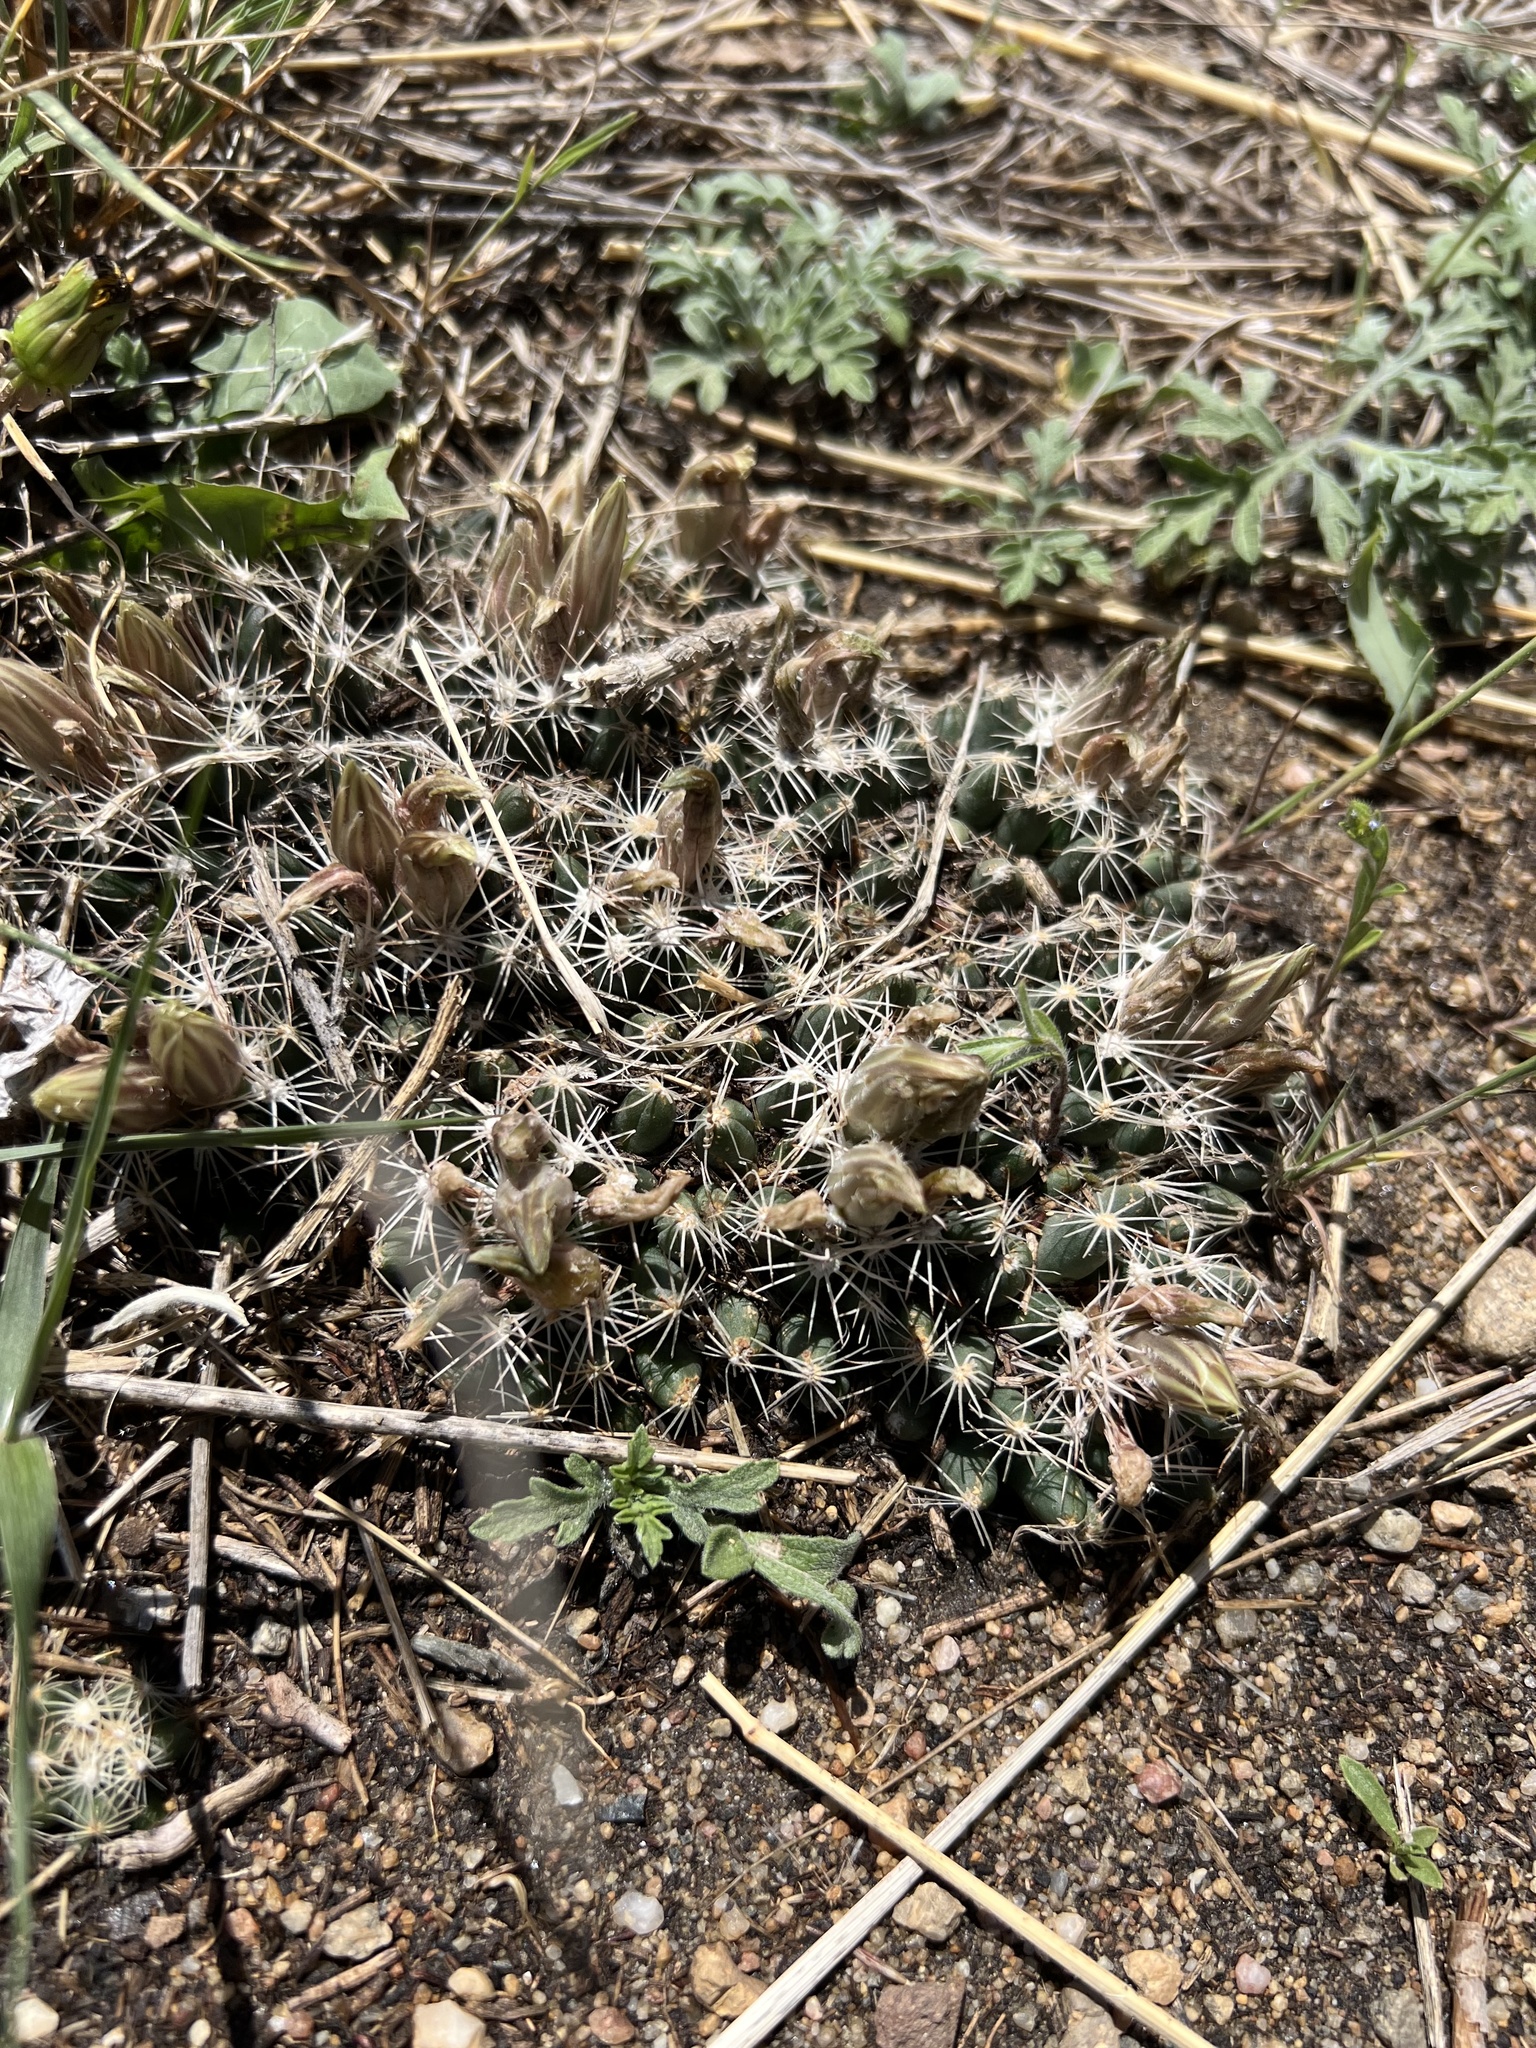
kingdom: Plantae
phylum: Tracheophyta
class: Magnoliopsida
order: Caryophyllales
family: Cactaceae
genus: Pelecyphora
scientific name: Pelecyphora missouriensis
